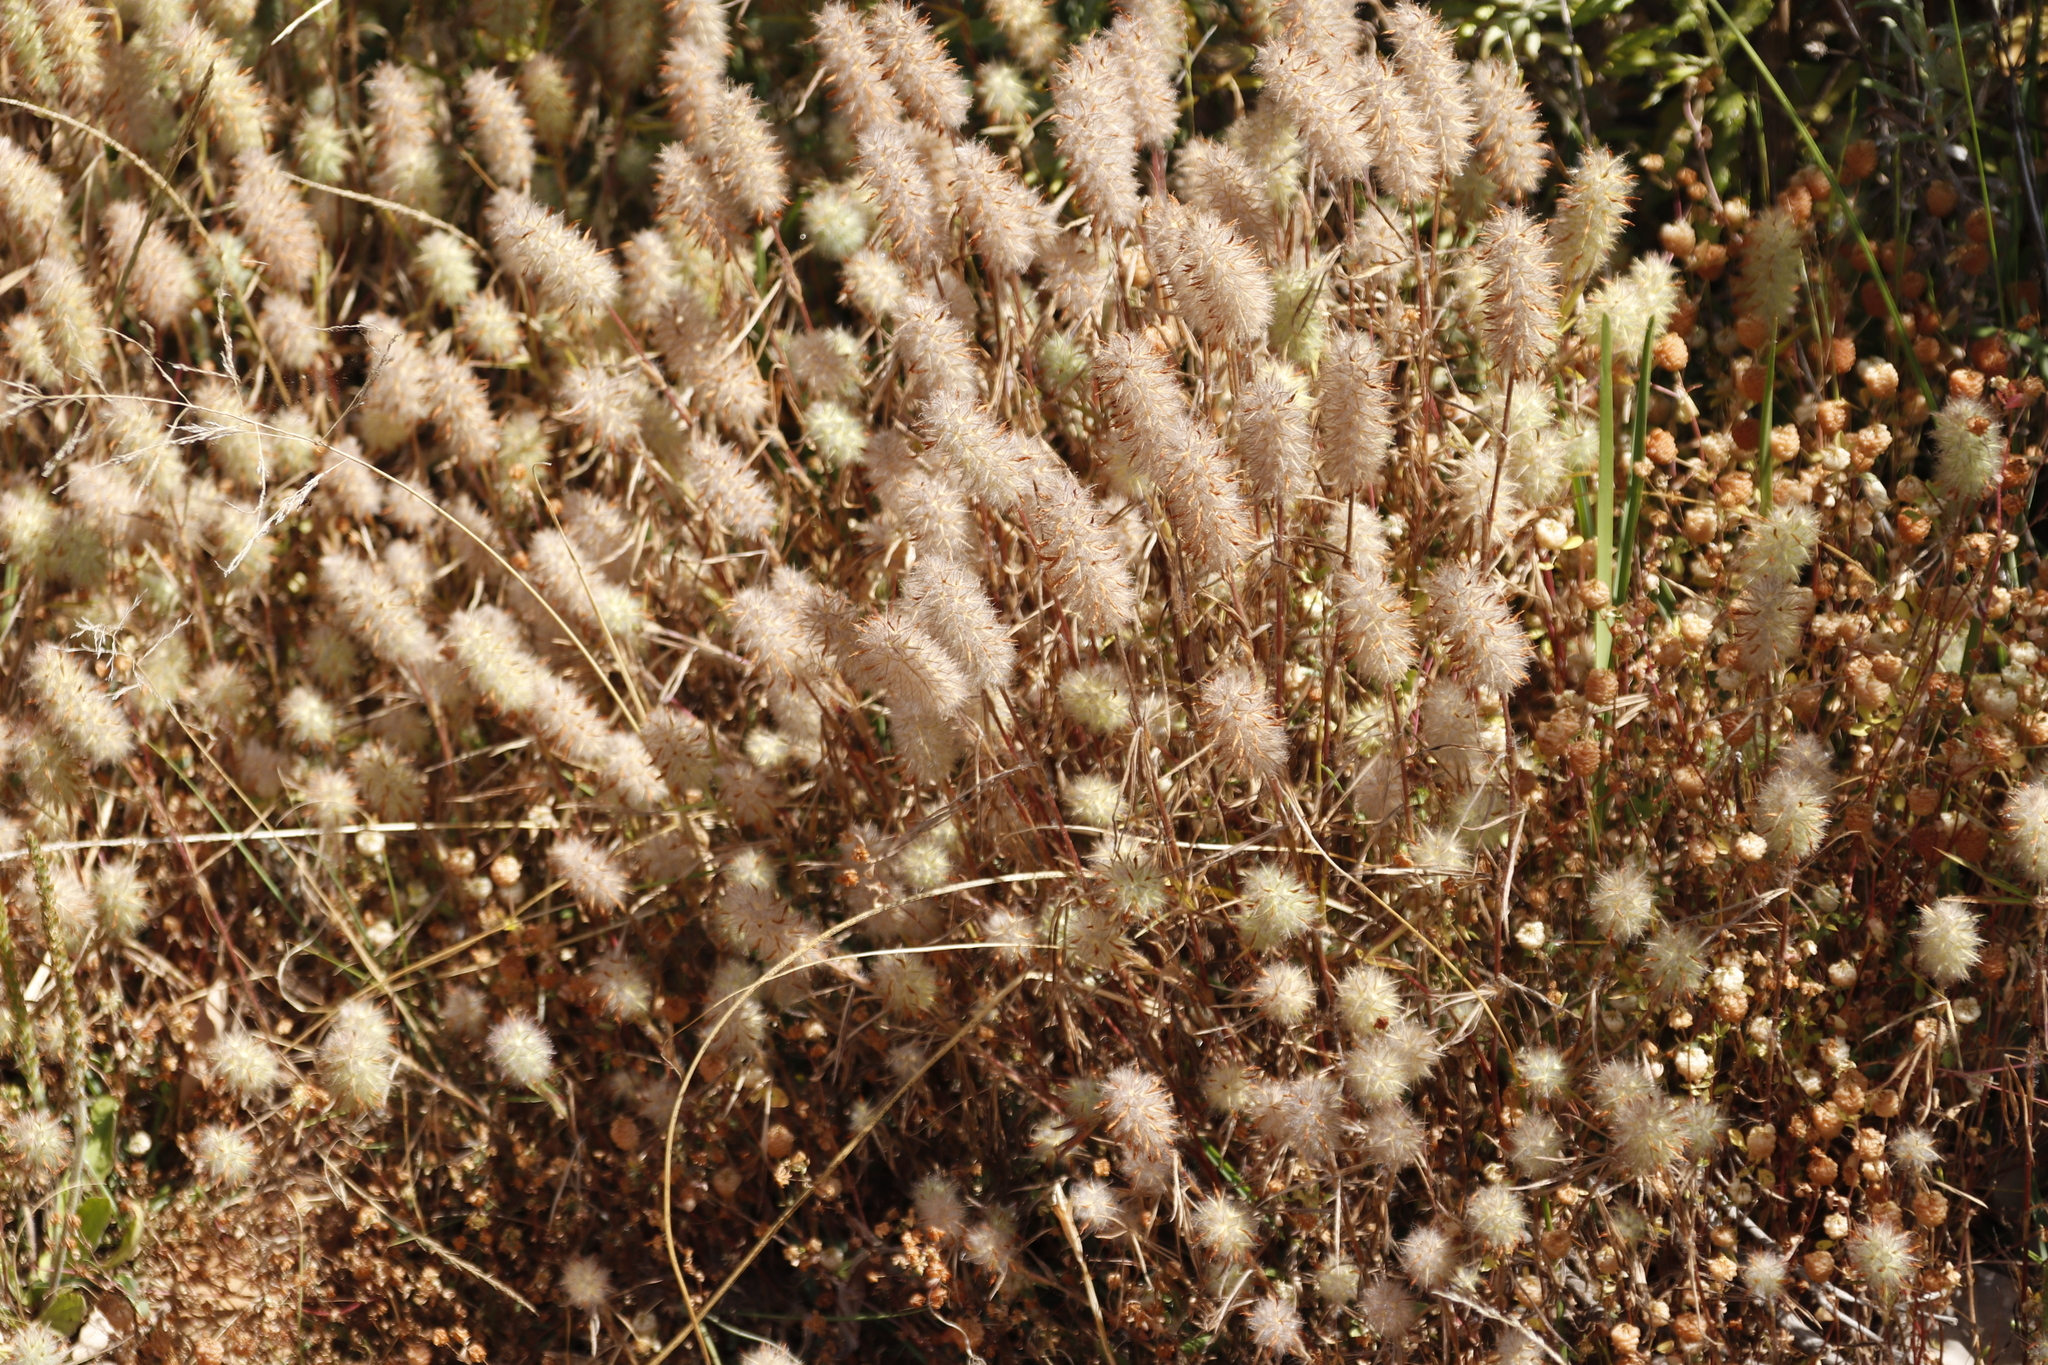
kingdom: Plantae
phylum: Tracheophyta
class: Magnoliopsida
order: Fabales
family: Fabaceae
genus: Trifolium
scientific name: Trifolium angustifolium
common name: Narrow clover
